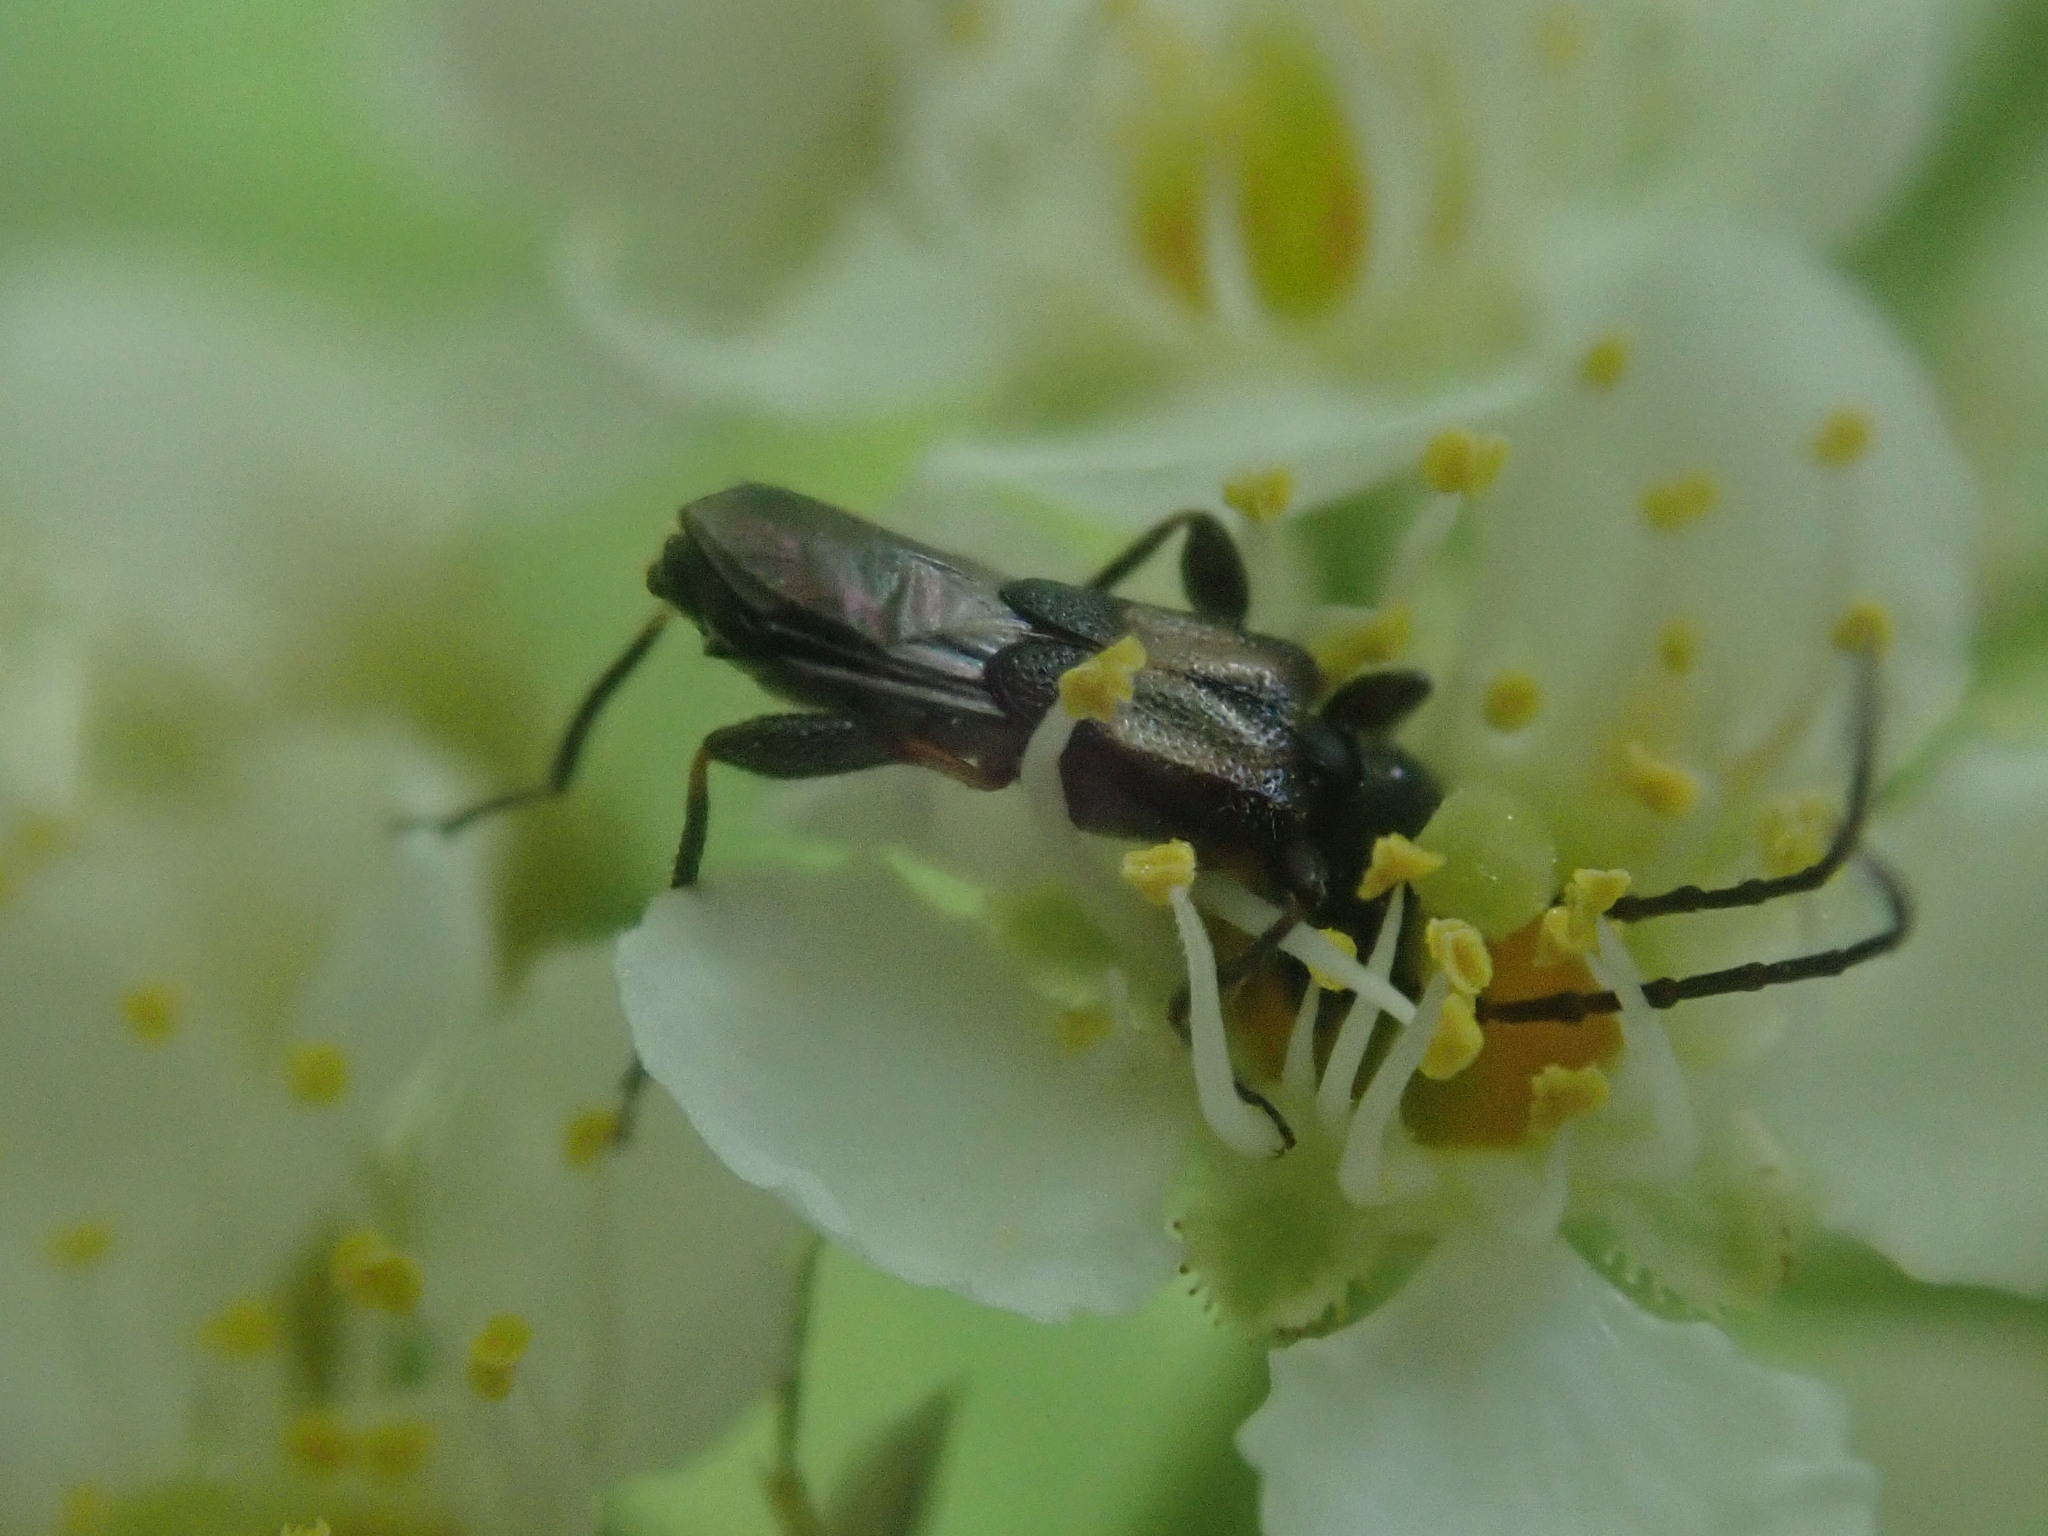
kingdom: Animalia
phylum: Arthropoda
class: Insecta
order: Coleoptera
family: Cerambycidae
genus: Molorchus
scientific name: Molorchus bimaculatus
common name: Bimaculate longhorn beetle
